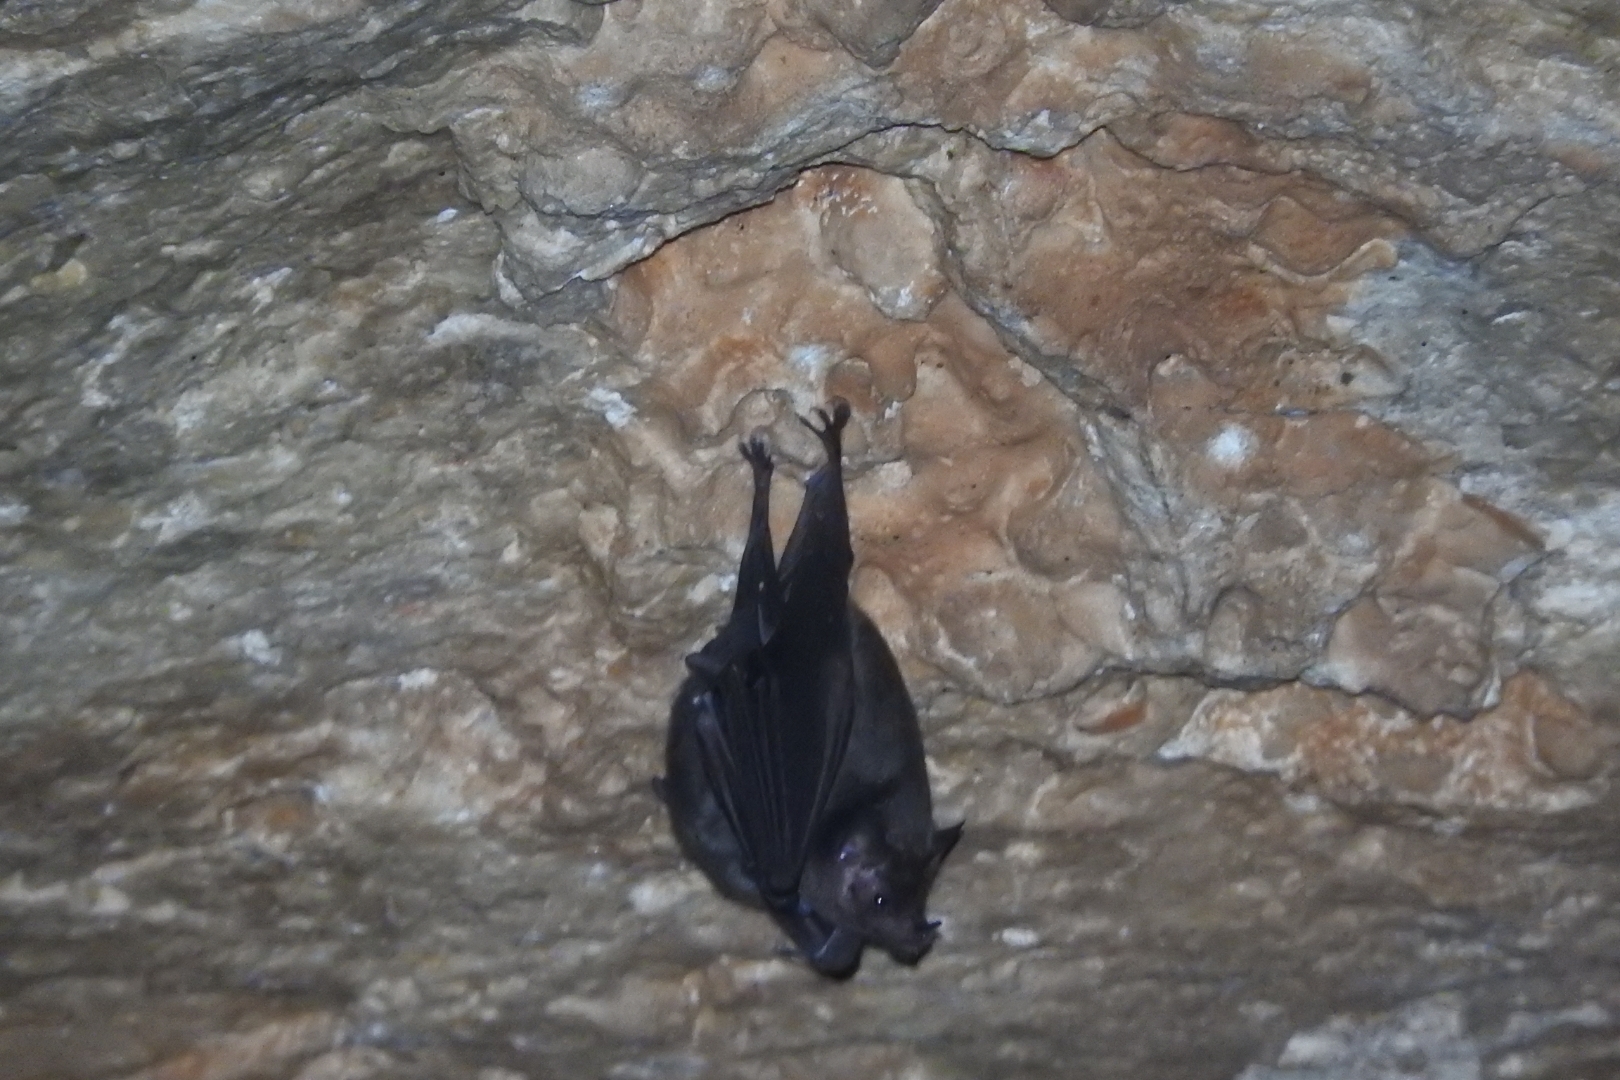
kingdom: Animalia
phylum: Chordata
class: Mammalia
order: Chiroptera
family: Phyllostomidae
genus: Glossophaga
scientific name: Glossophaga soricina
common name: Pallas's long-tongued bat
